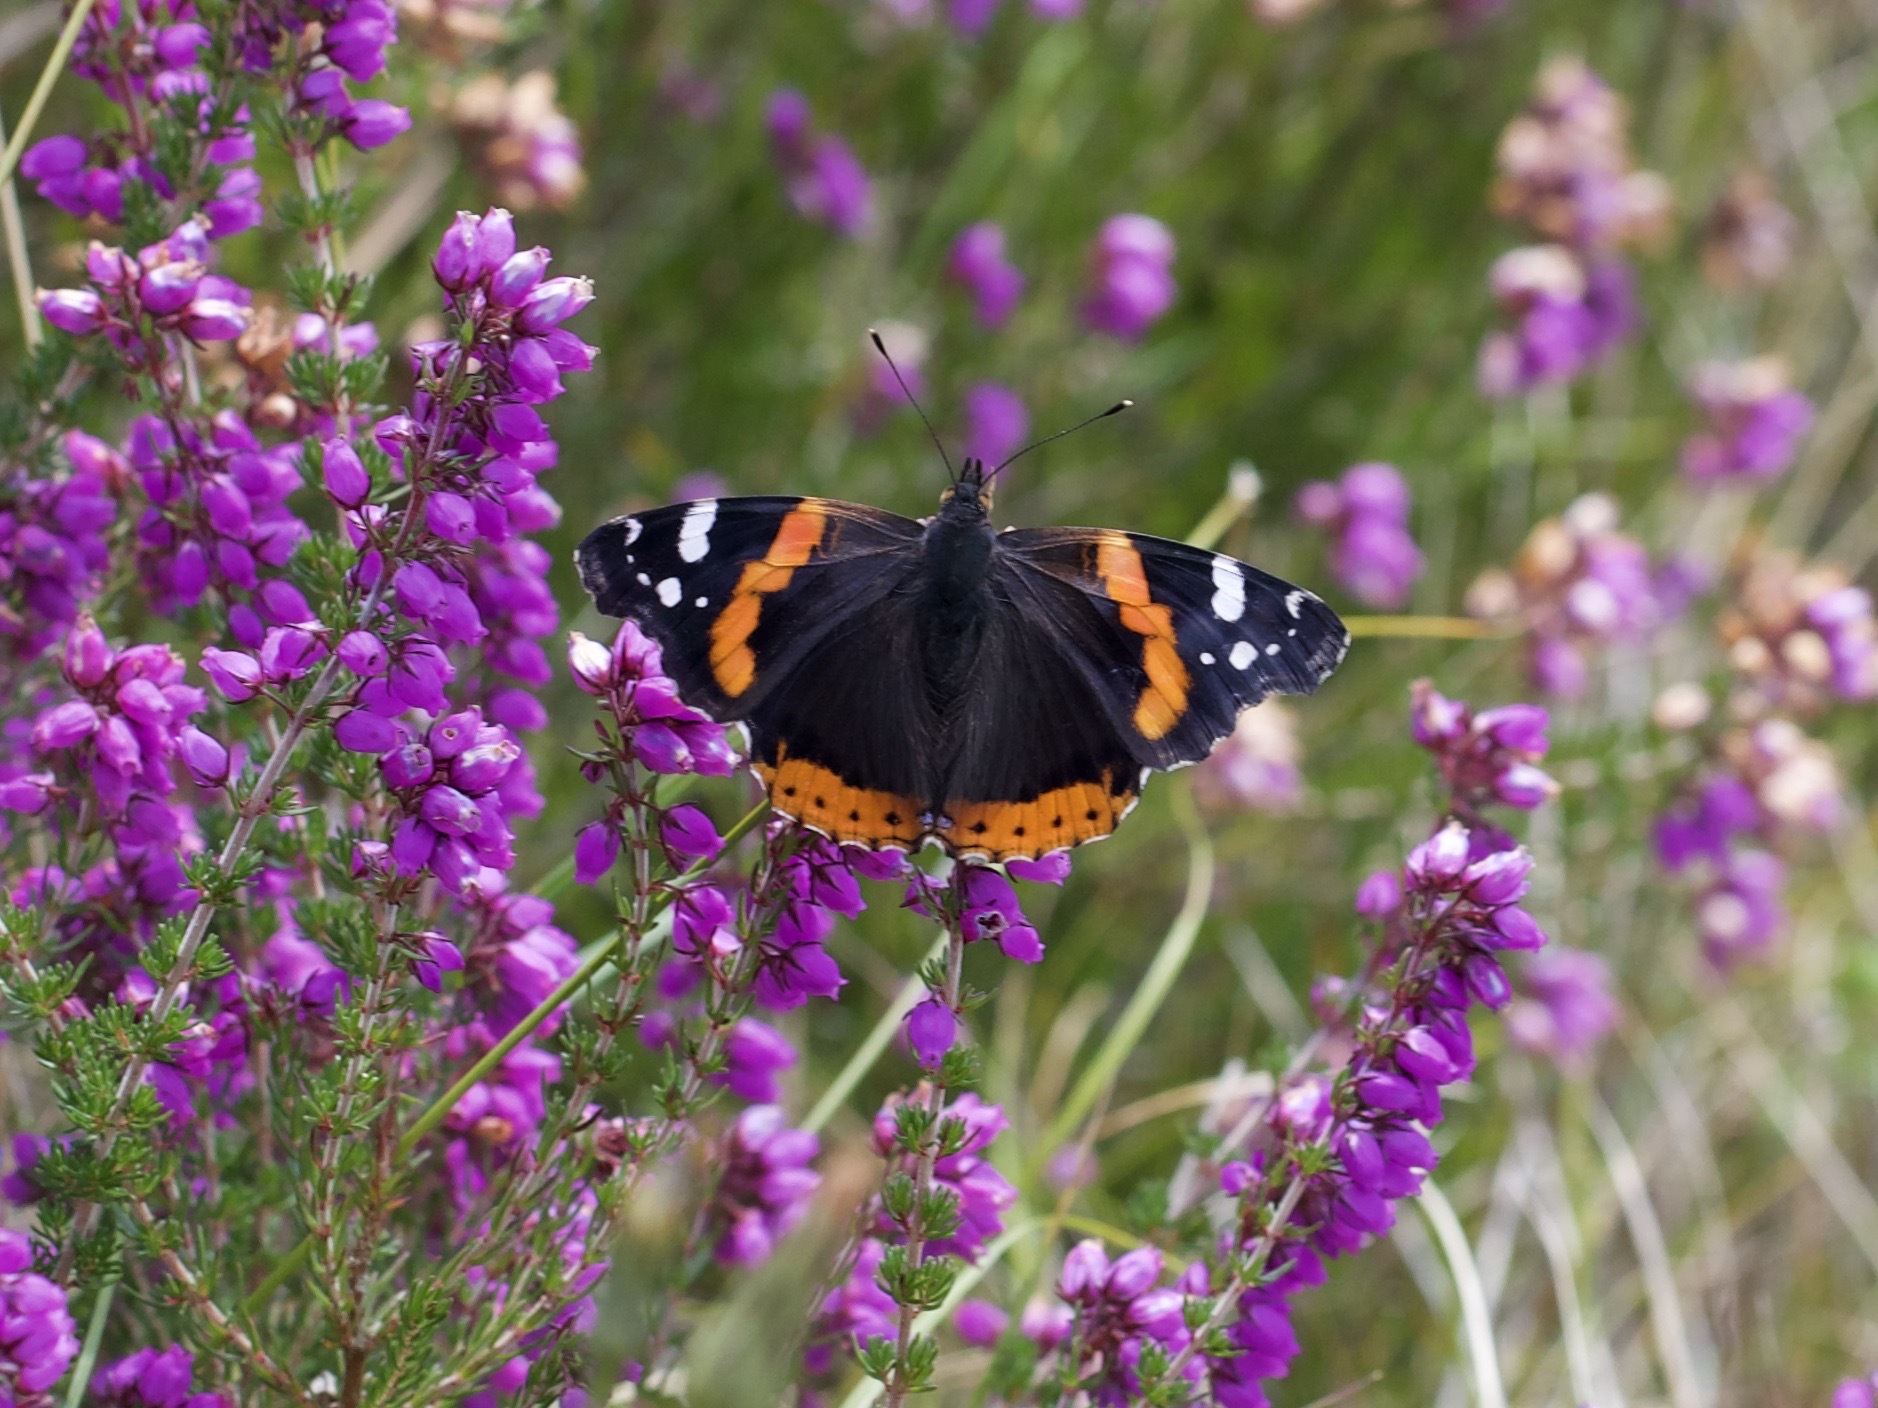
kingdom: Animalia
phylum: Arthropoda
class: Insecta
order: Lepidoptera
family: Nymphalidae
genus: Vanessa
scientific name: Vanessa atalanta
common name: Red admiral
